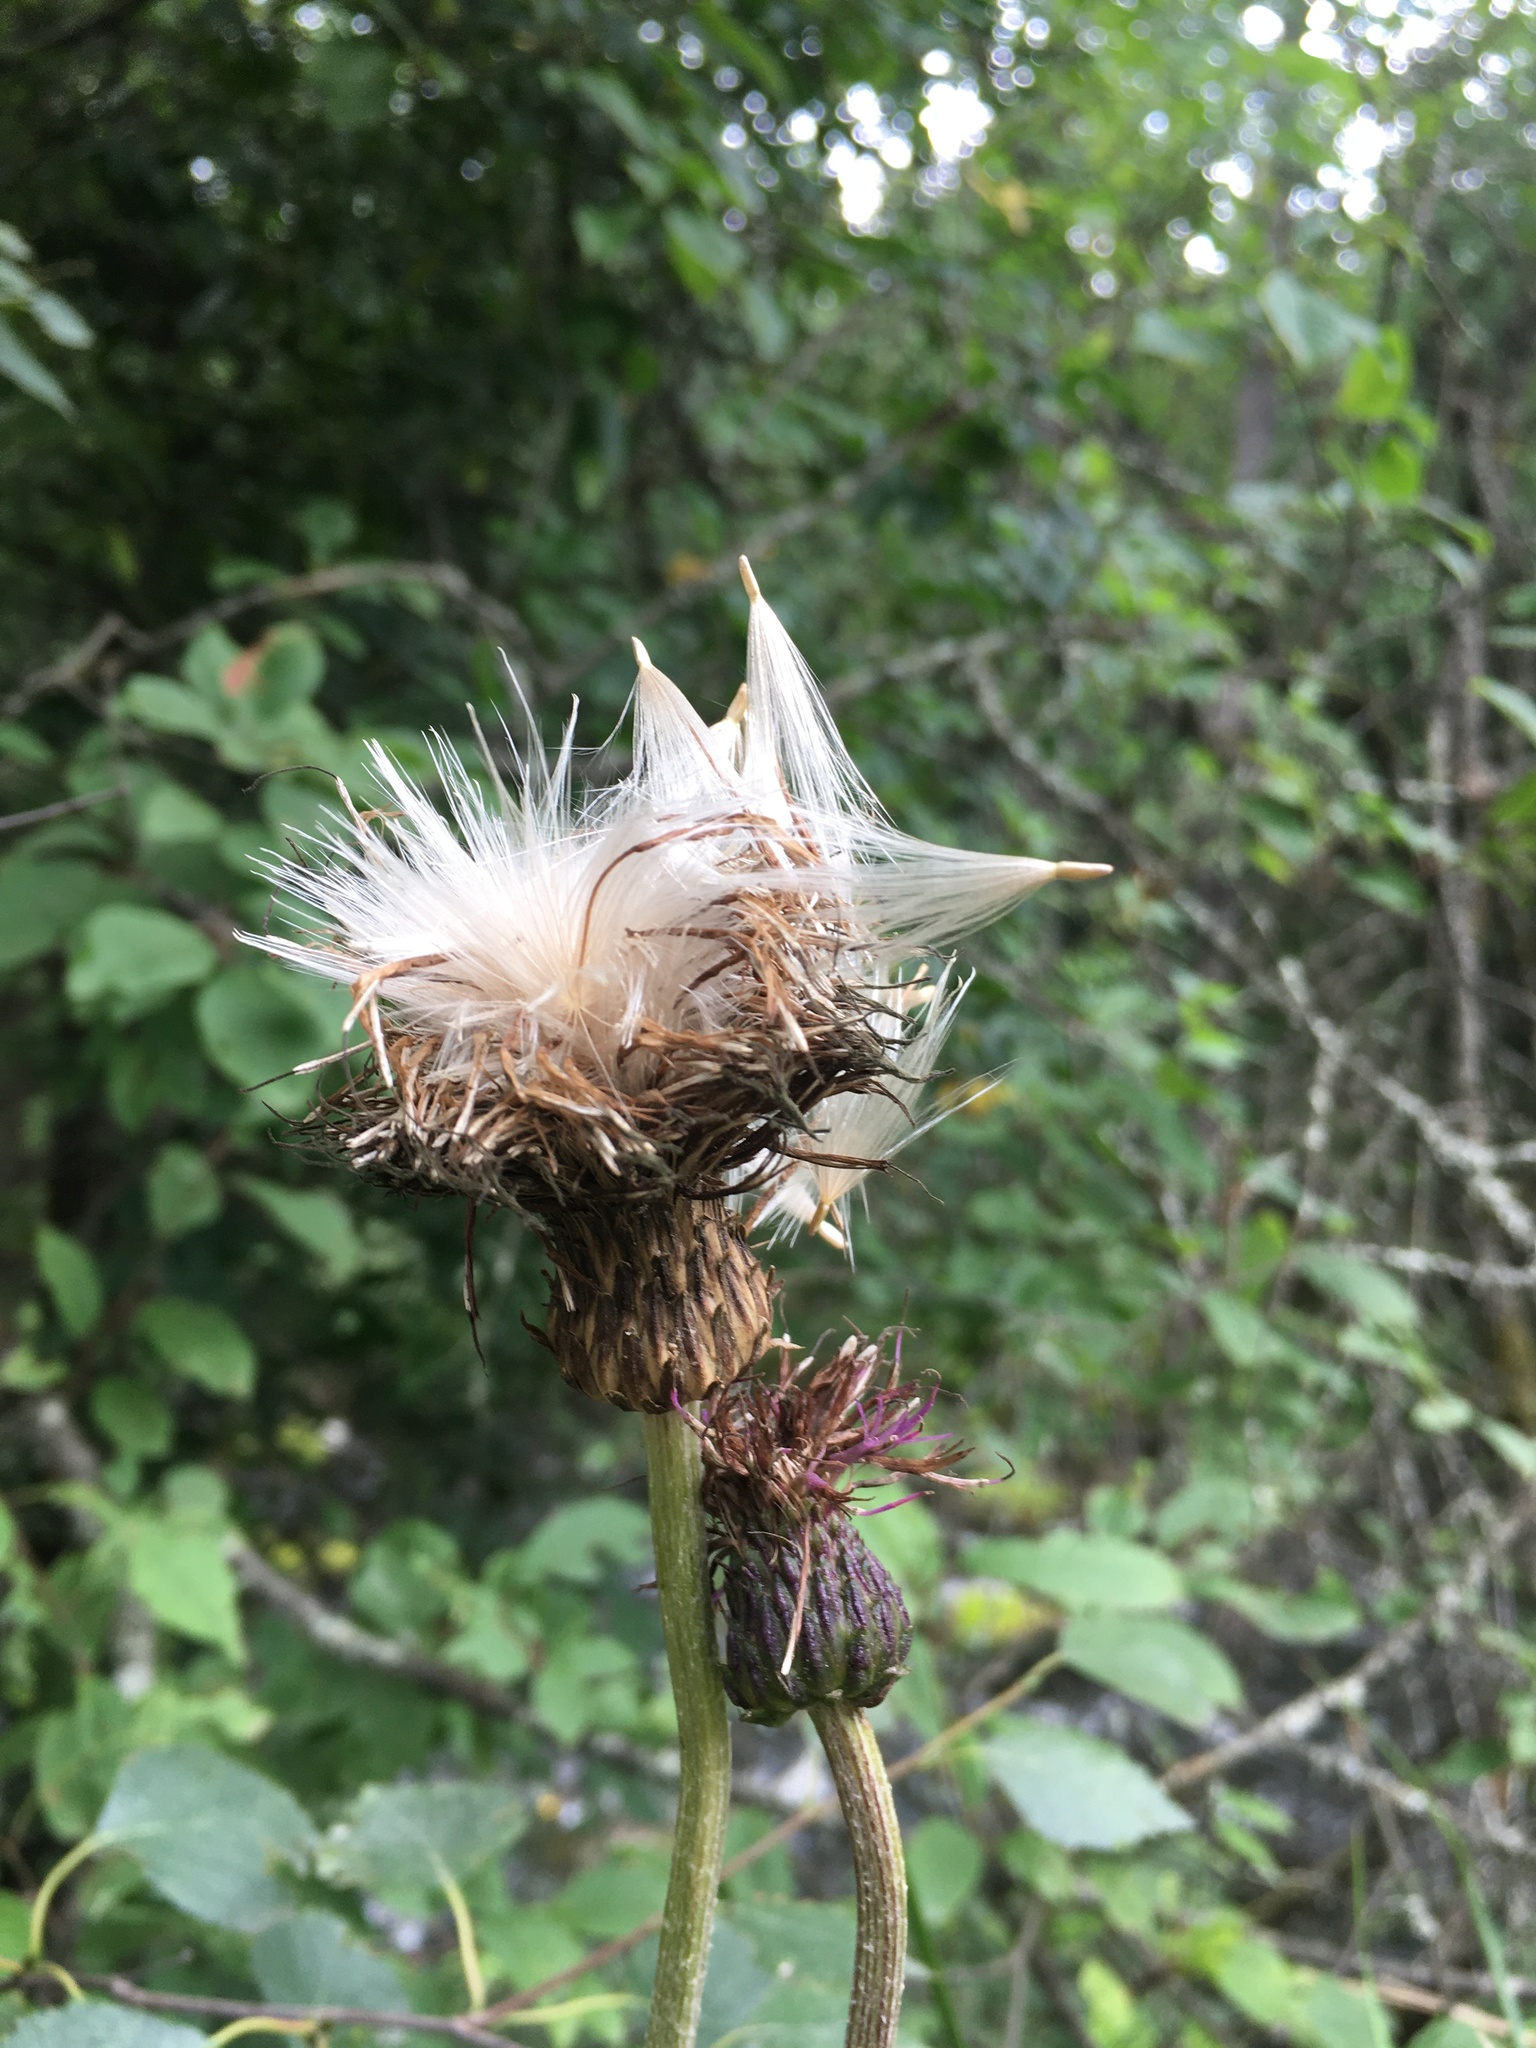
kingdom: Plantae
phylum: Tracheophyta
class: Magnoliopsida
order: Asterales
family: Asteraceae
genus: Cirsium
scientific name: Cirsium heterophyllum
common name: Melancholy thistle
